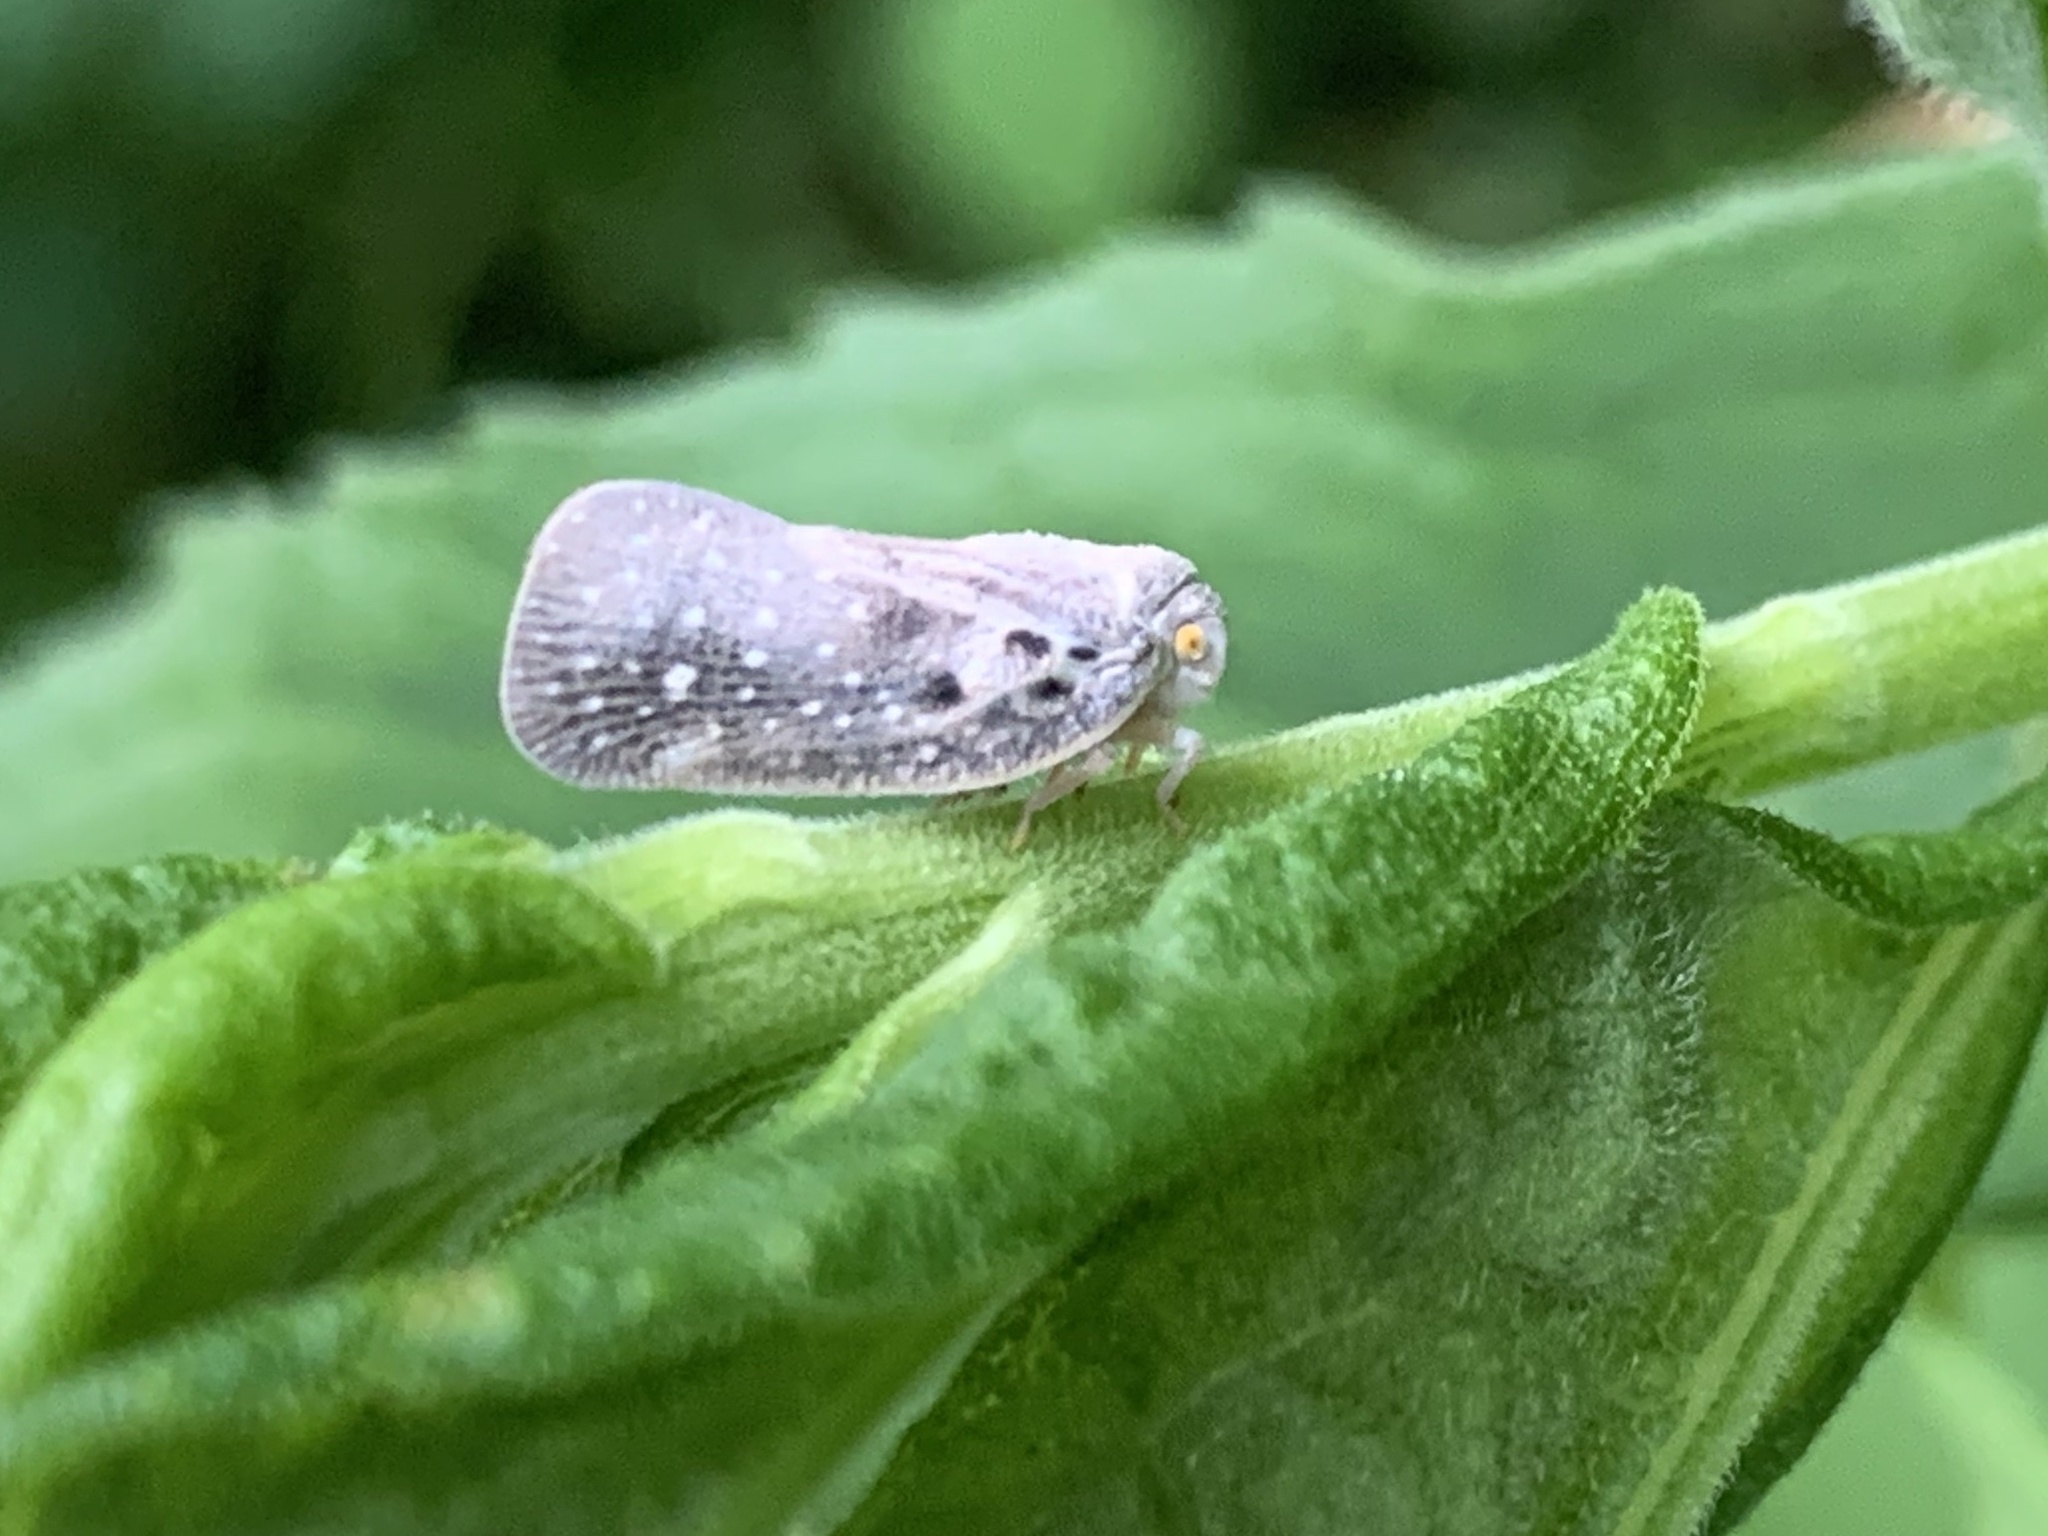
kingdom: Animalia
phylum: Arthropoda
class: Insecta
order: Hemiptera
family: Flatidae
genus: Metcalfa
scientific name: Metcalfa pruinosa
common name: Citrus flatid planthopper
